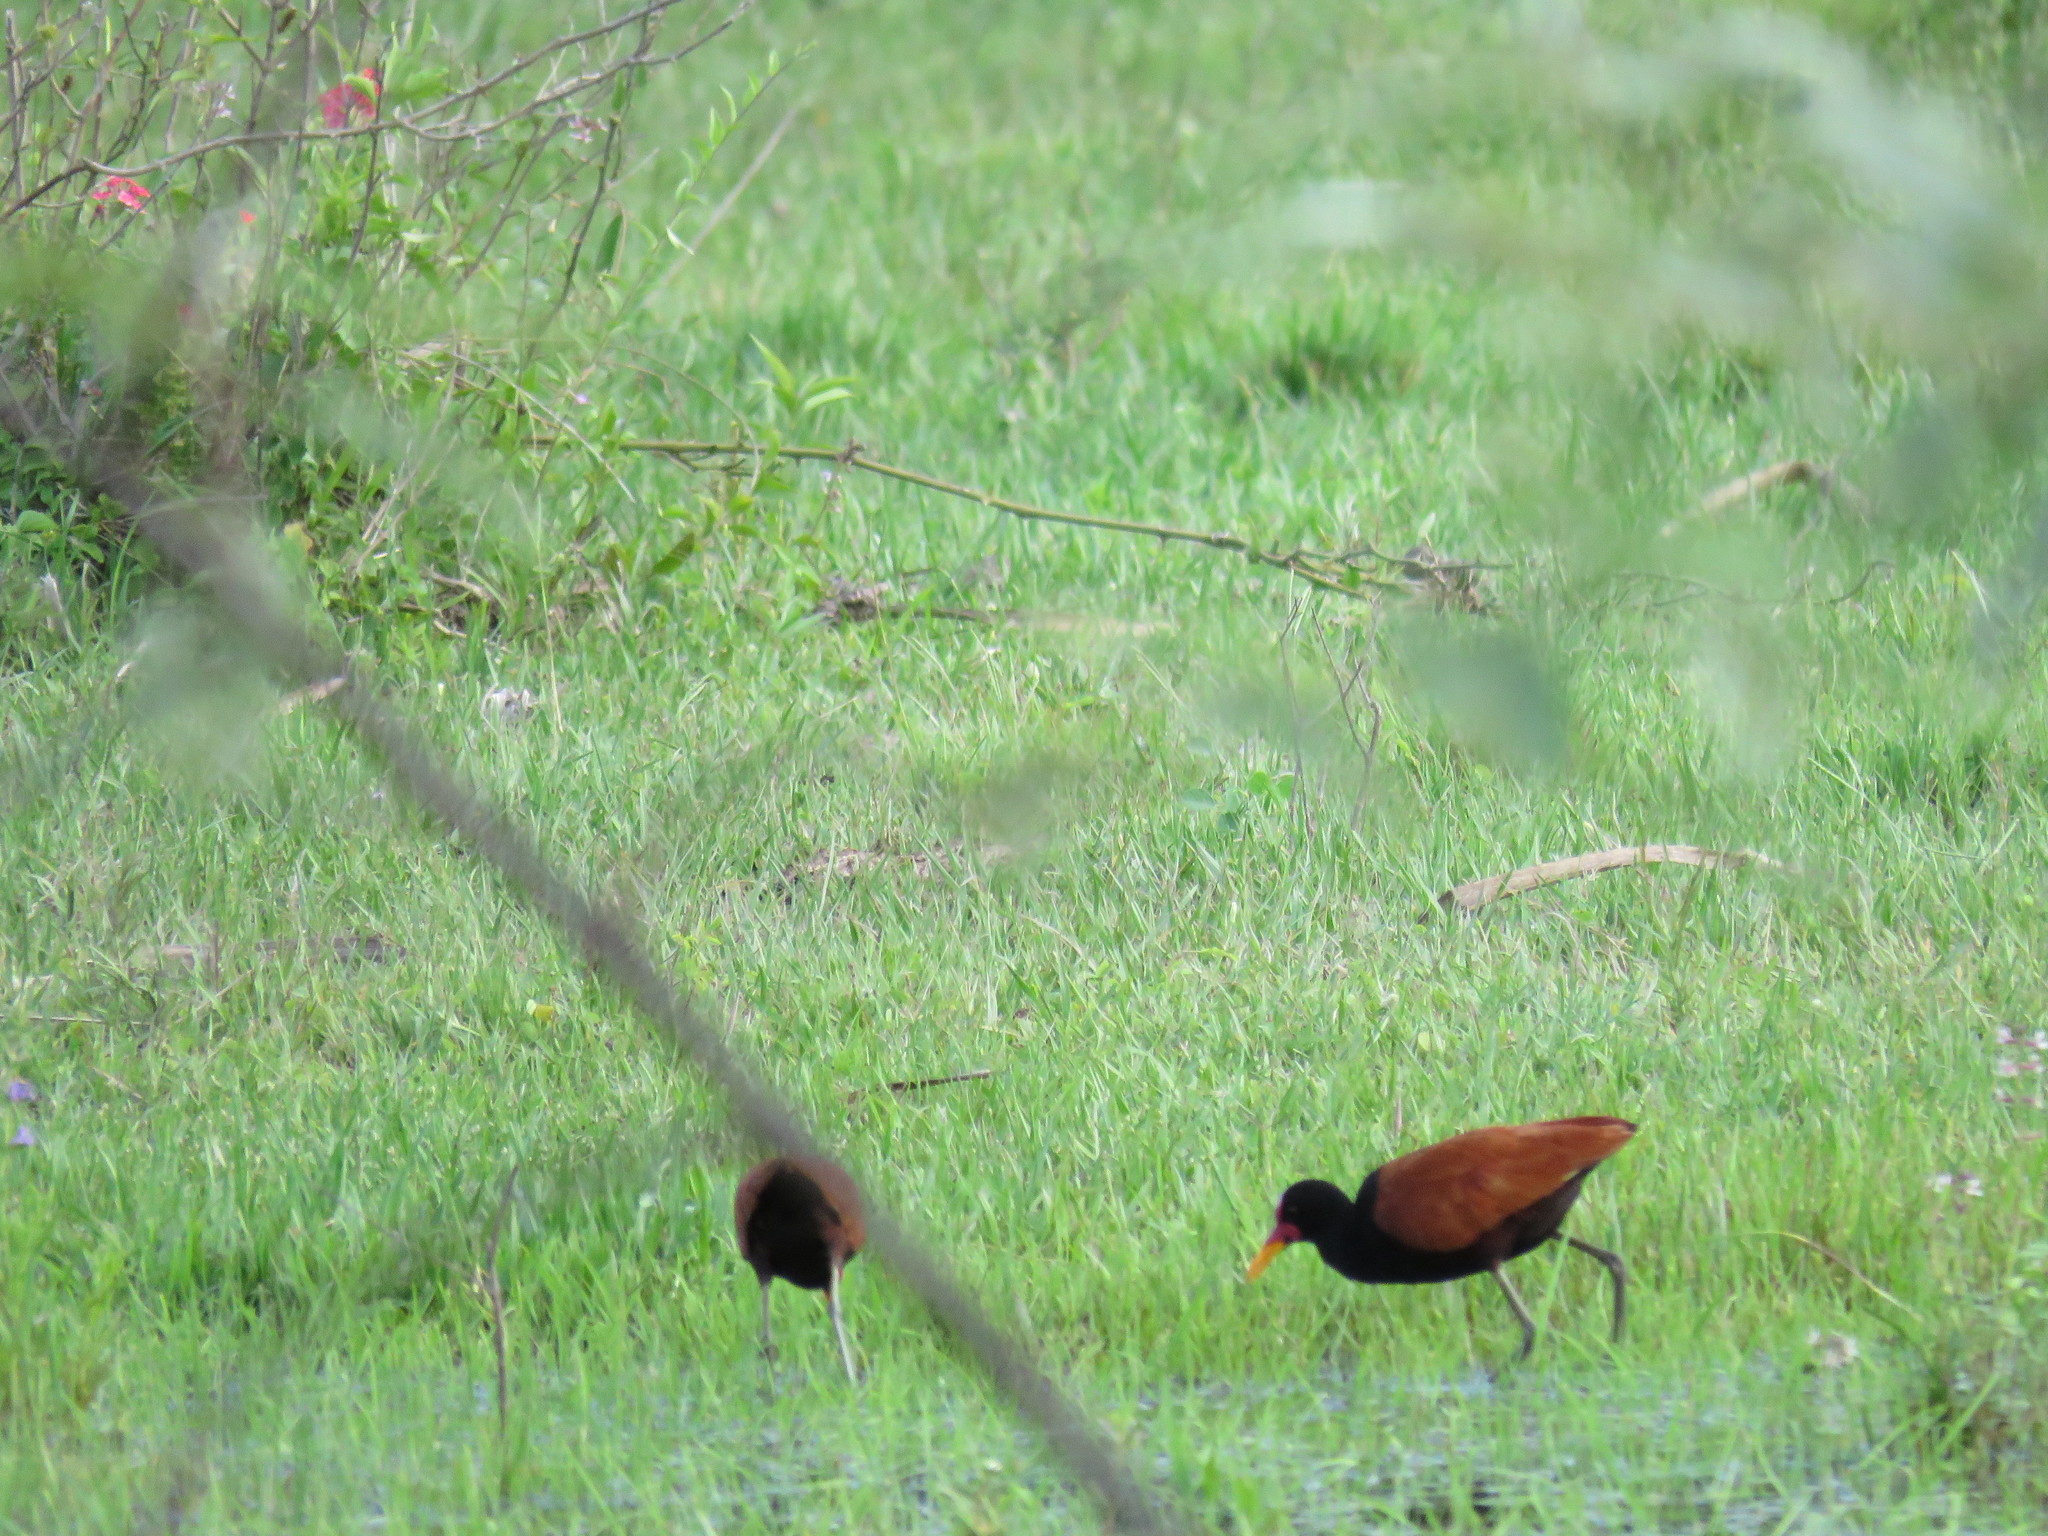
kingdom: Animalia
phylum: Chordata
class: Aves
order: Charadriiformes
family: Jacanidae
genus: Jacana
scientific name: Jacana jacana
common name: Wattled jacana
